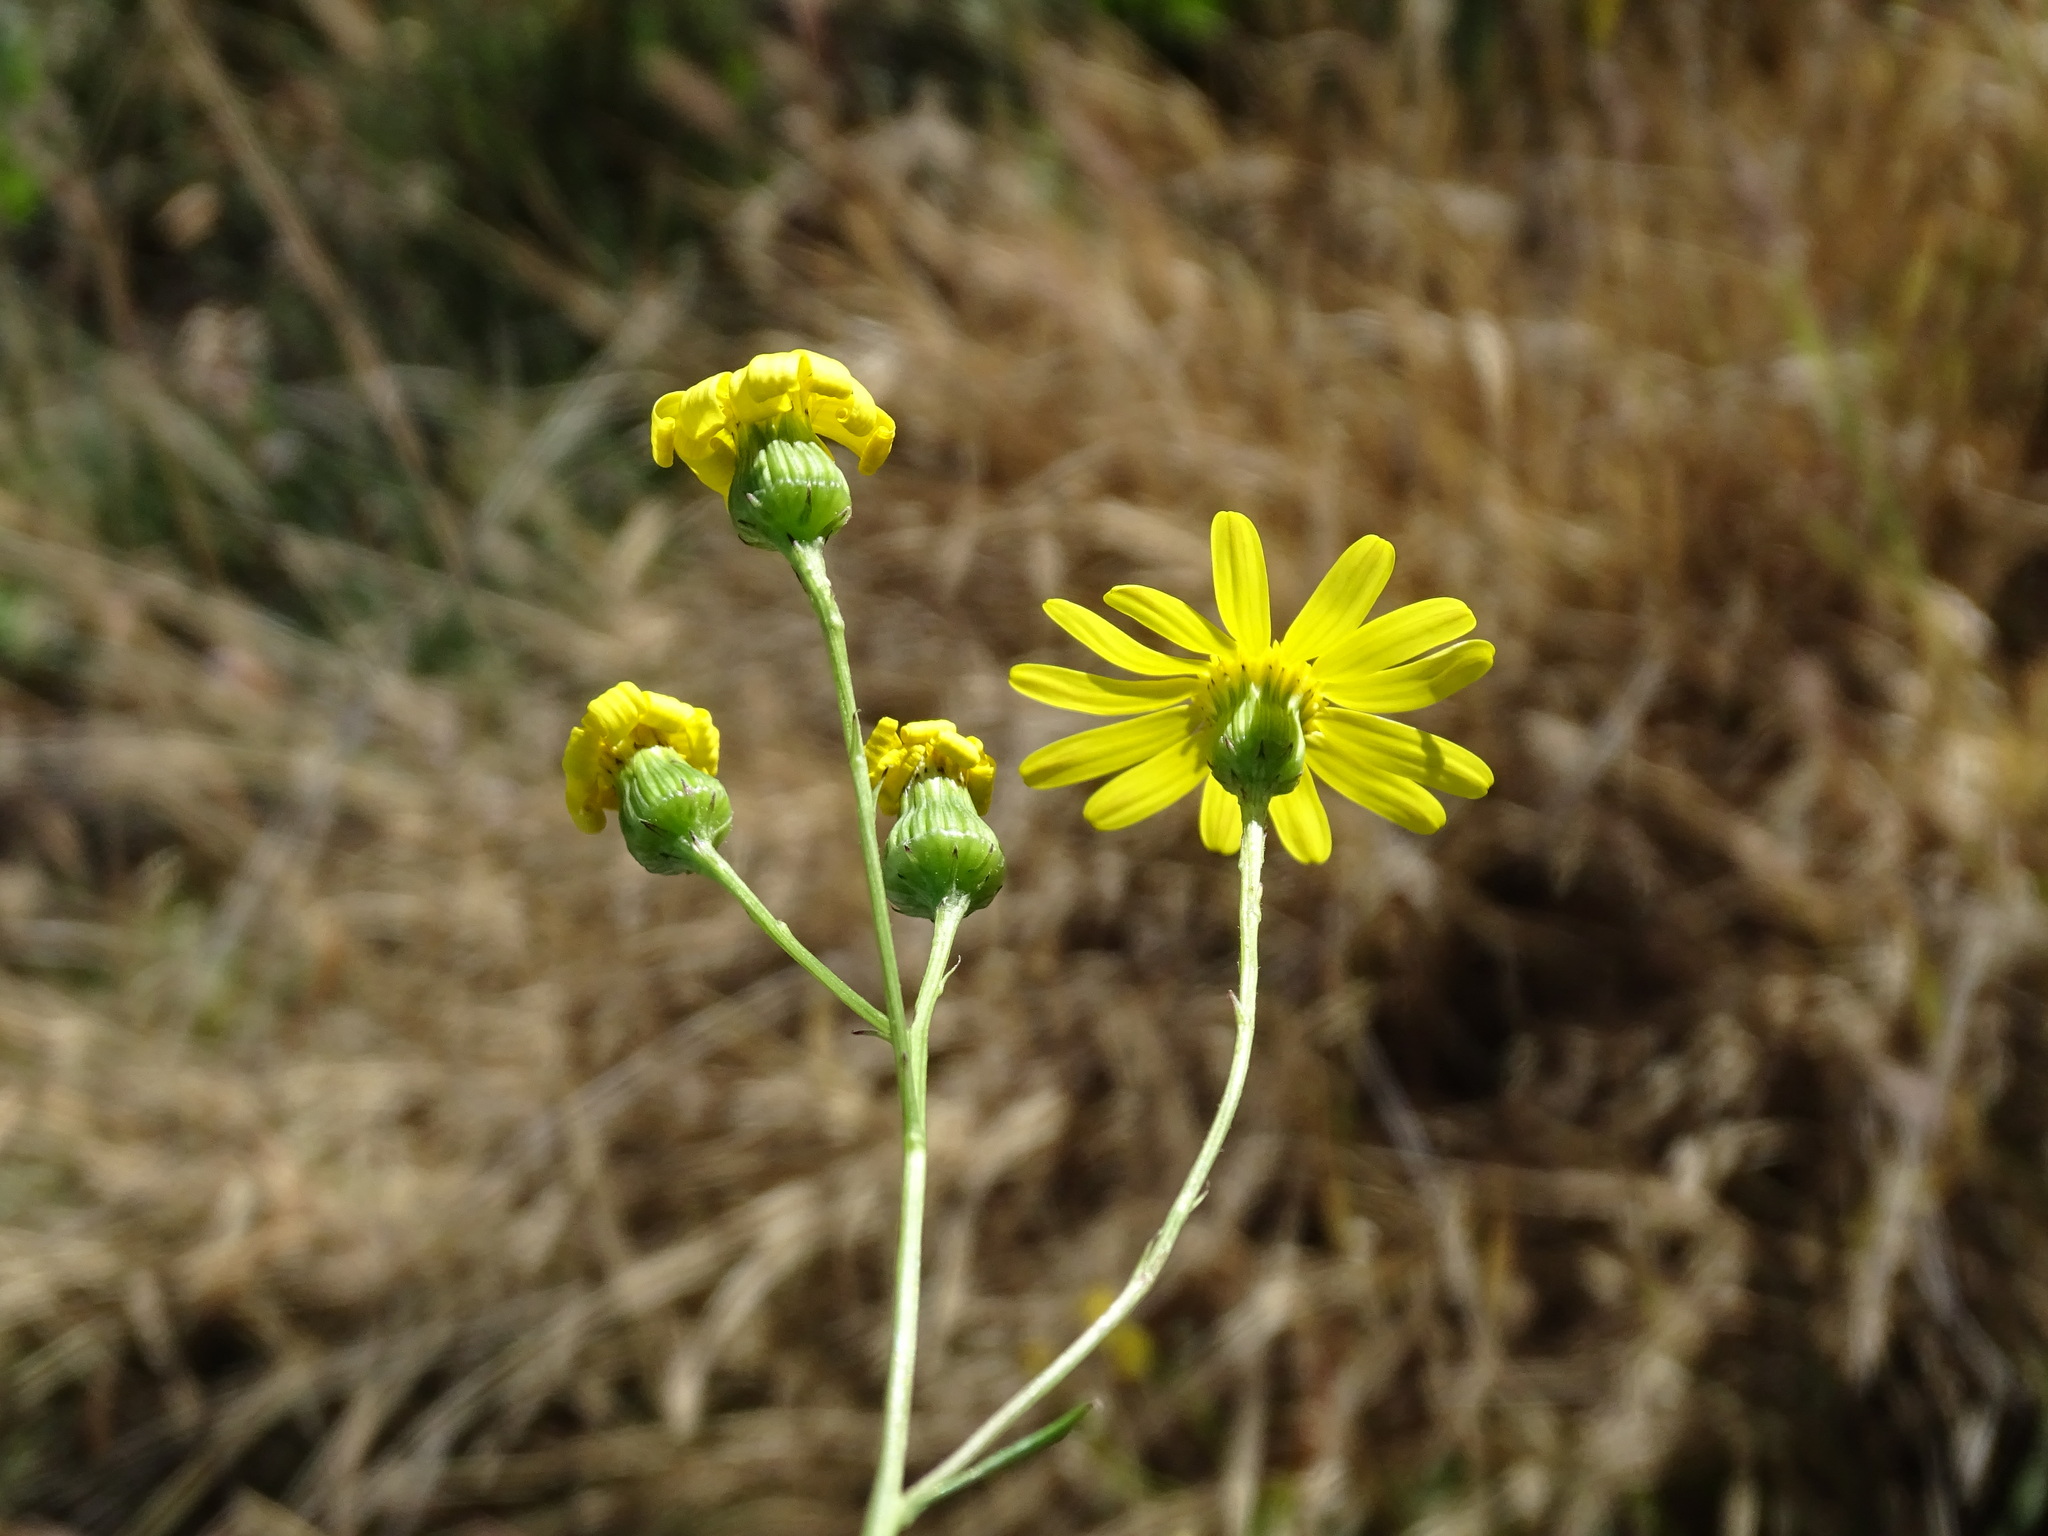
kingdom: Plantae
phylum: Tracheophyta
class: Magnoliopsida
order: Asterales
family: Asteraceae
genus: Senecio
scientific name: Senecio inaequidens
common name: Narrow-leaved ragwort
